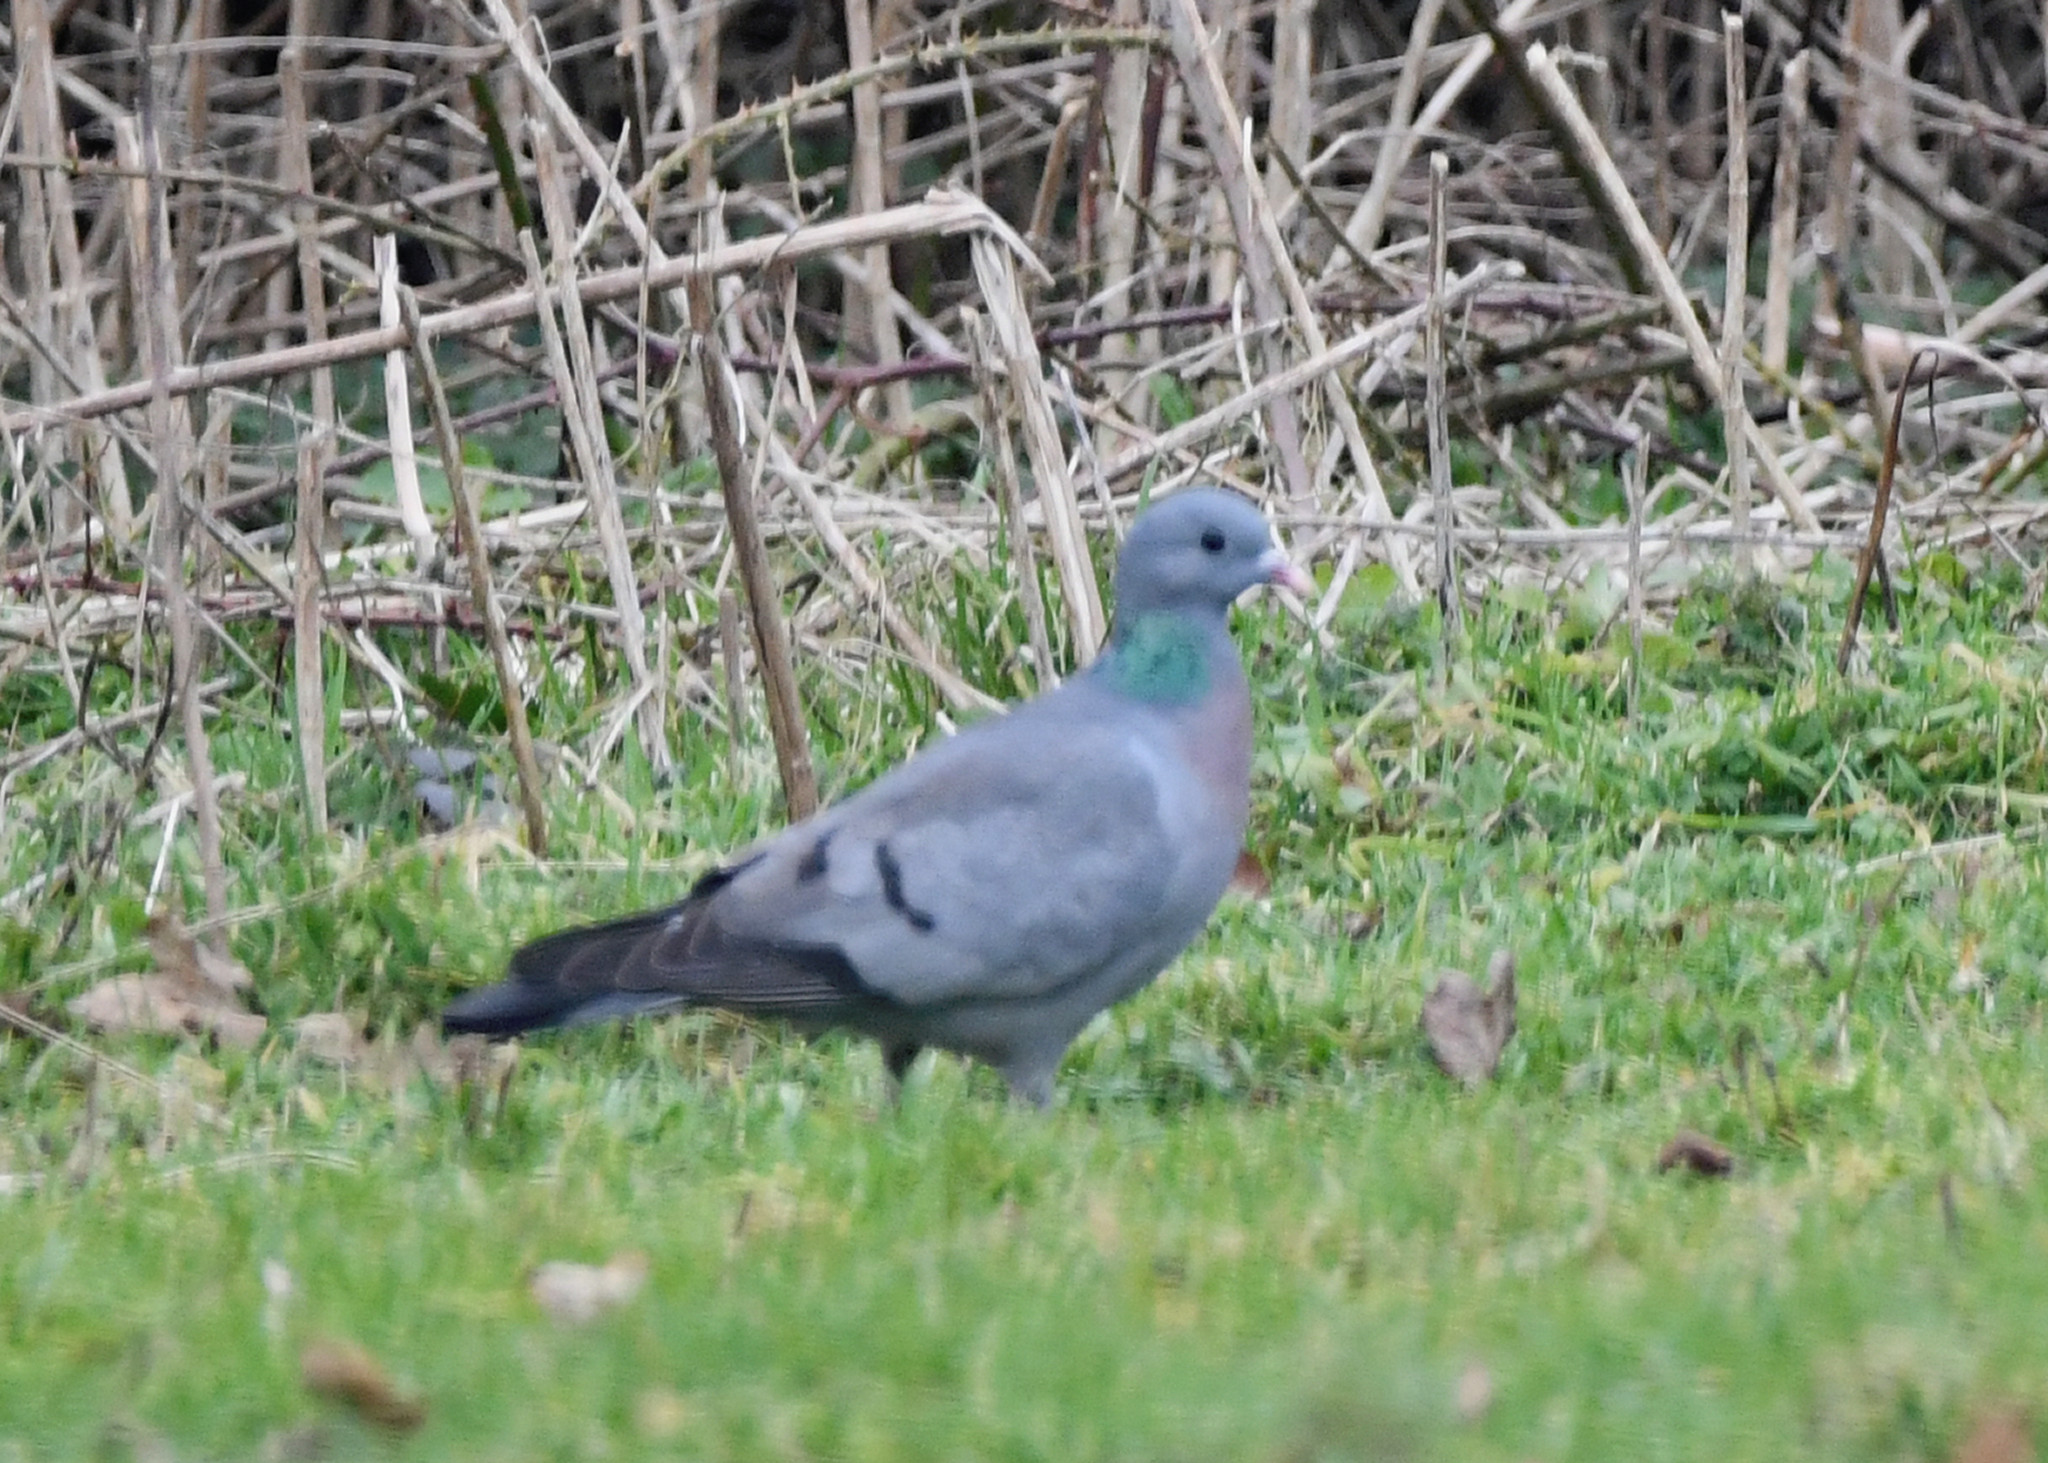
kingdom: Animalia
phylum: Chordata
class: Aves
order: Columbiformes
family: Columbidae
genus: Columba
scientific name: Columba oenas
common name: Stock dove
